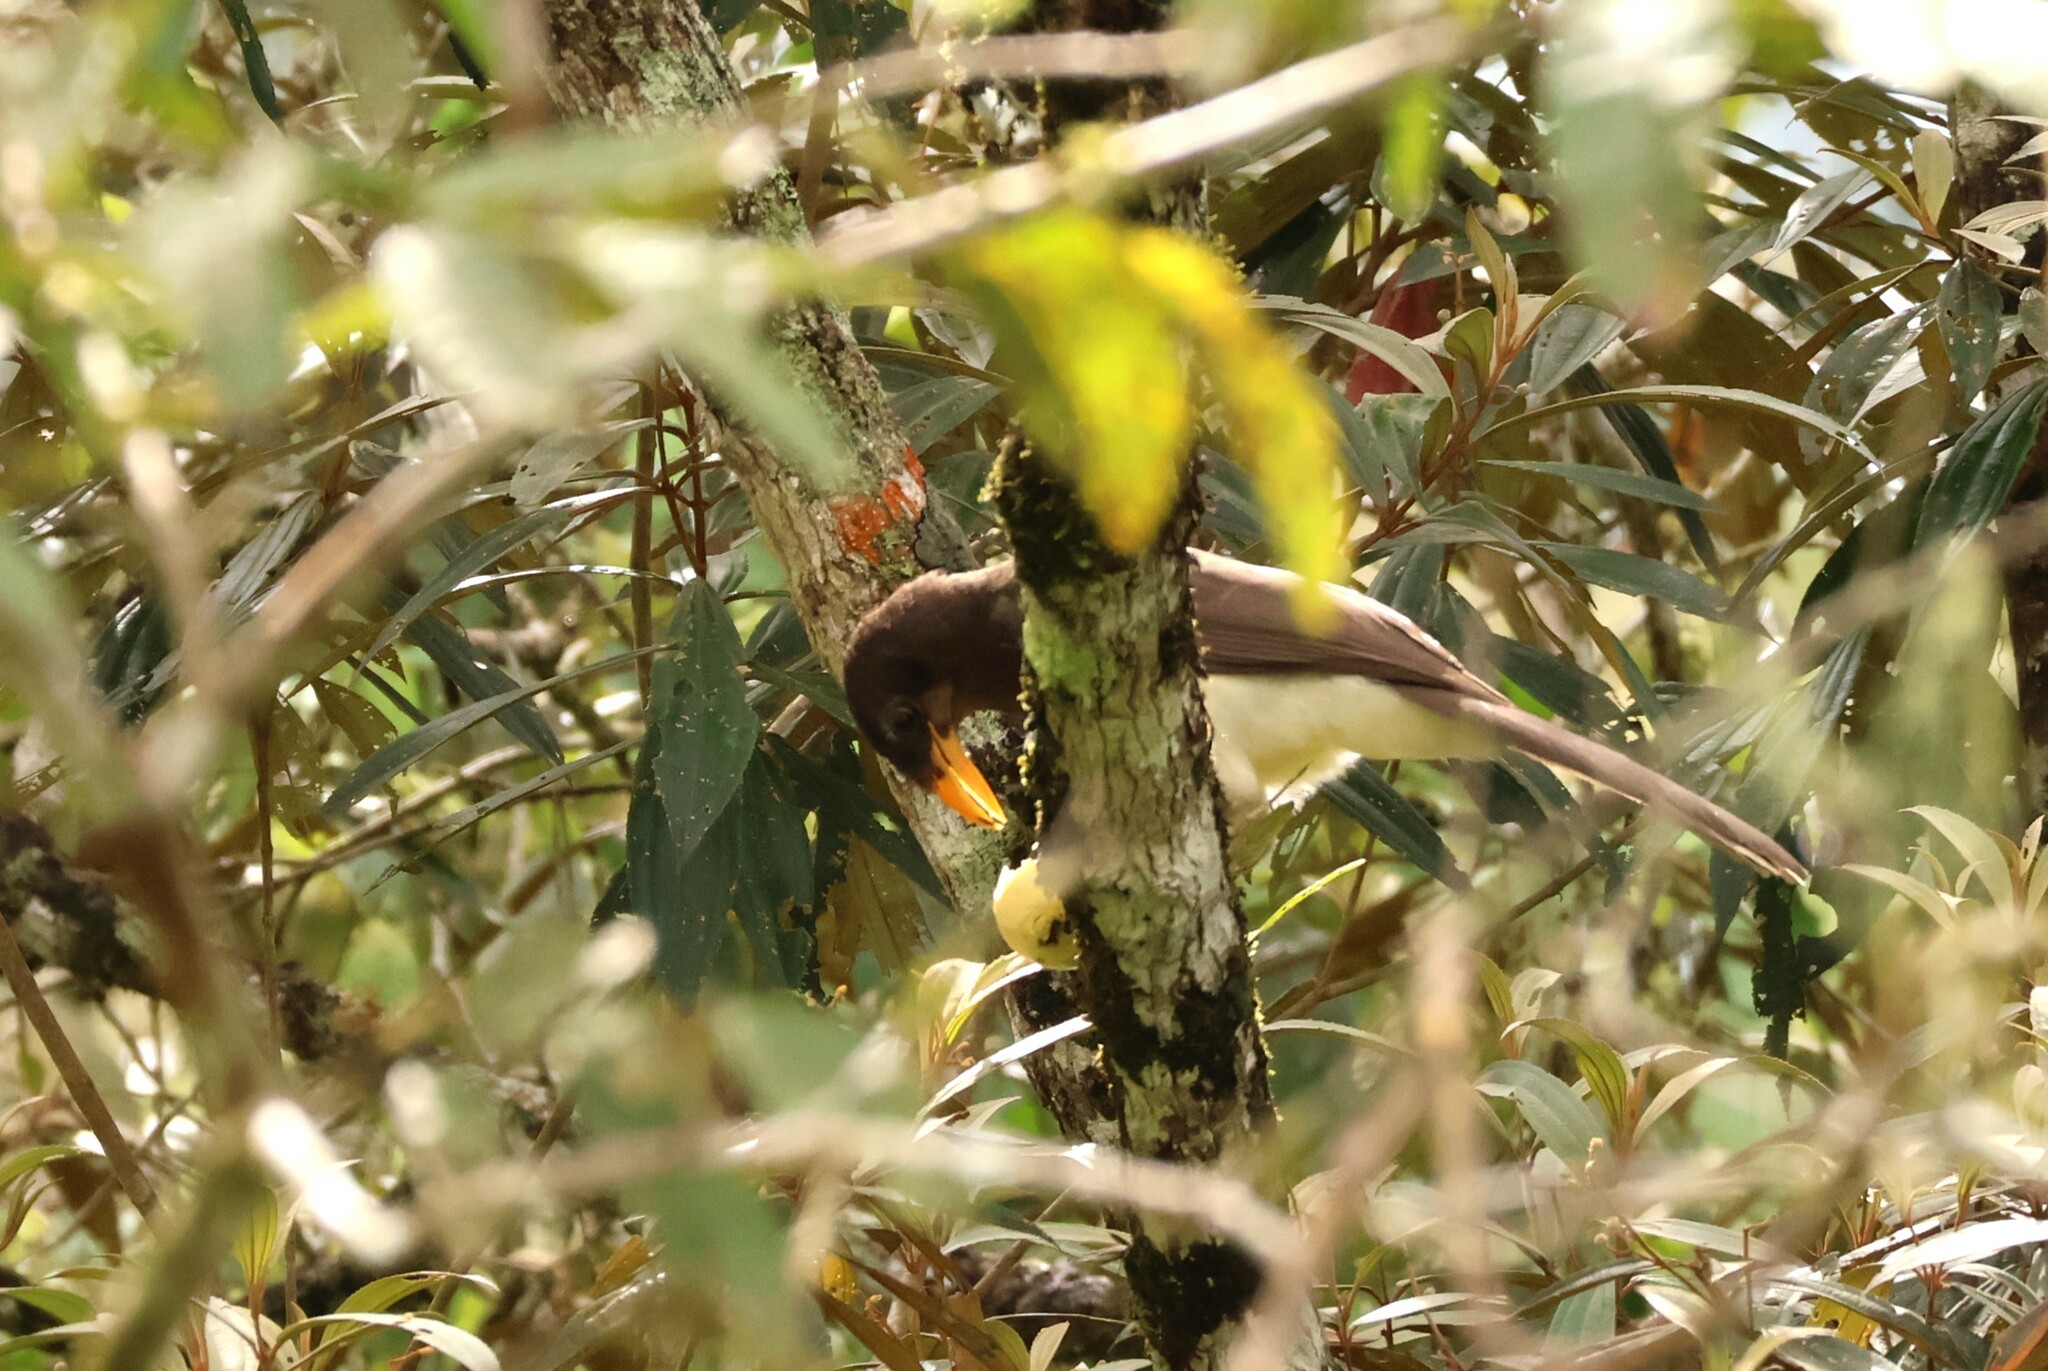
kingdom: Animalia
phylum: Chordata
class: Aves
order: Passeriformes
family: Corvidae
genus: Psilorhinus
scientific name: Psilorhinus morio
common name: Brown jay
